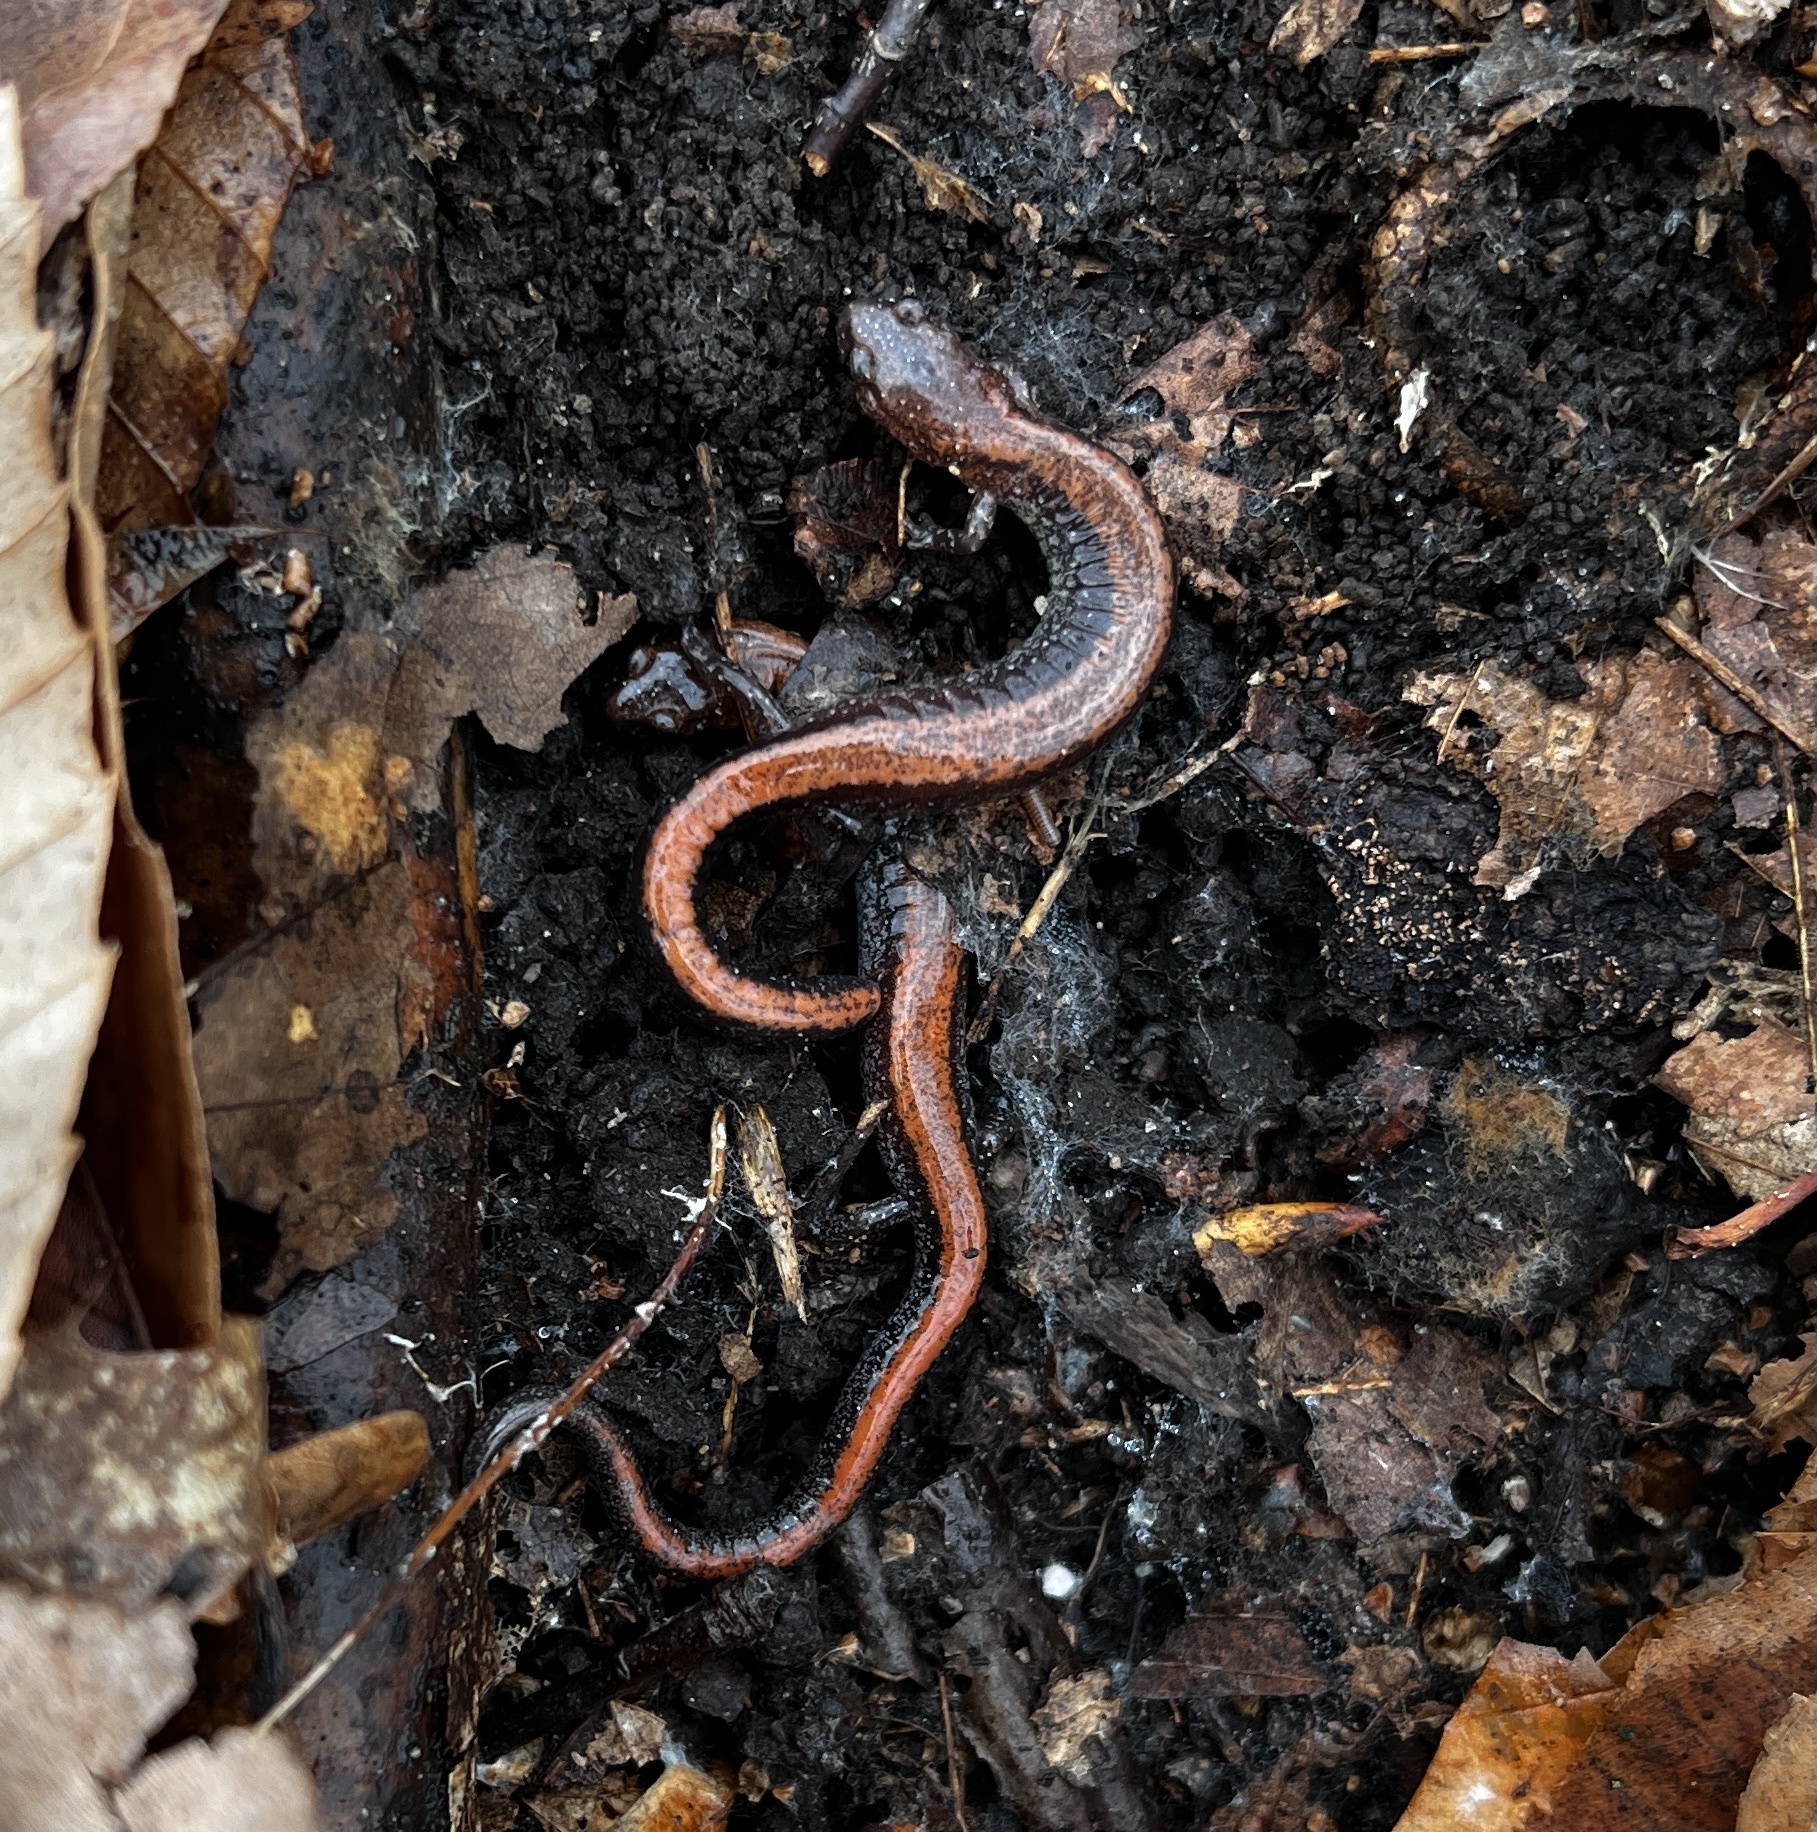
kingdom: Animalia
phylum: Chordata
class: Amphibia
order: Caudata
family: Plethodontidae
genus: Plethodon
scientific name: Plethodon cinereus
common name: Redback salamander
